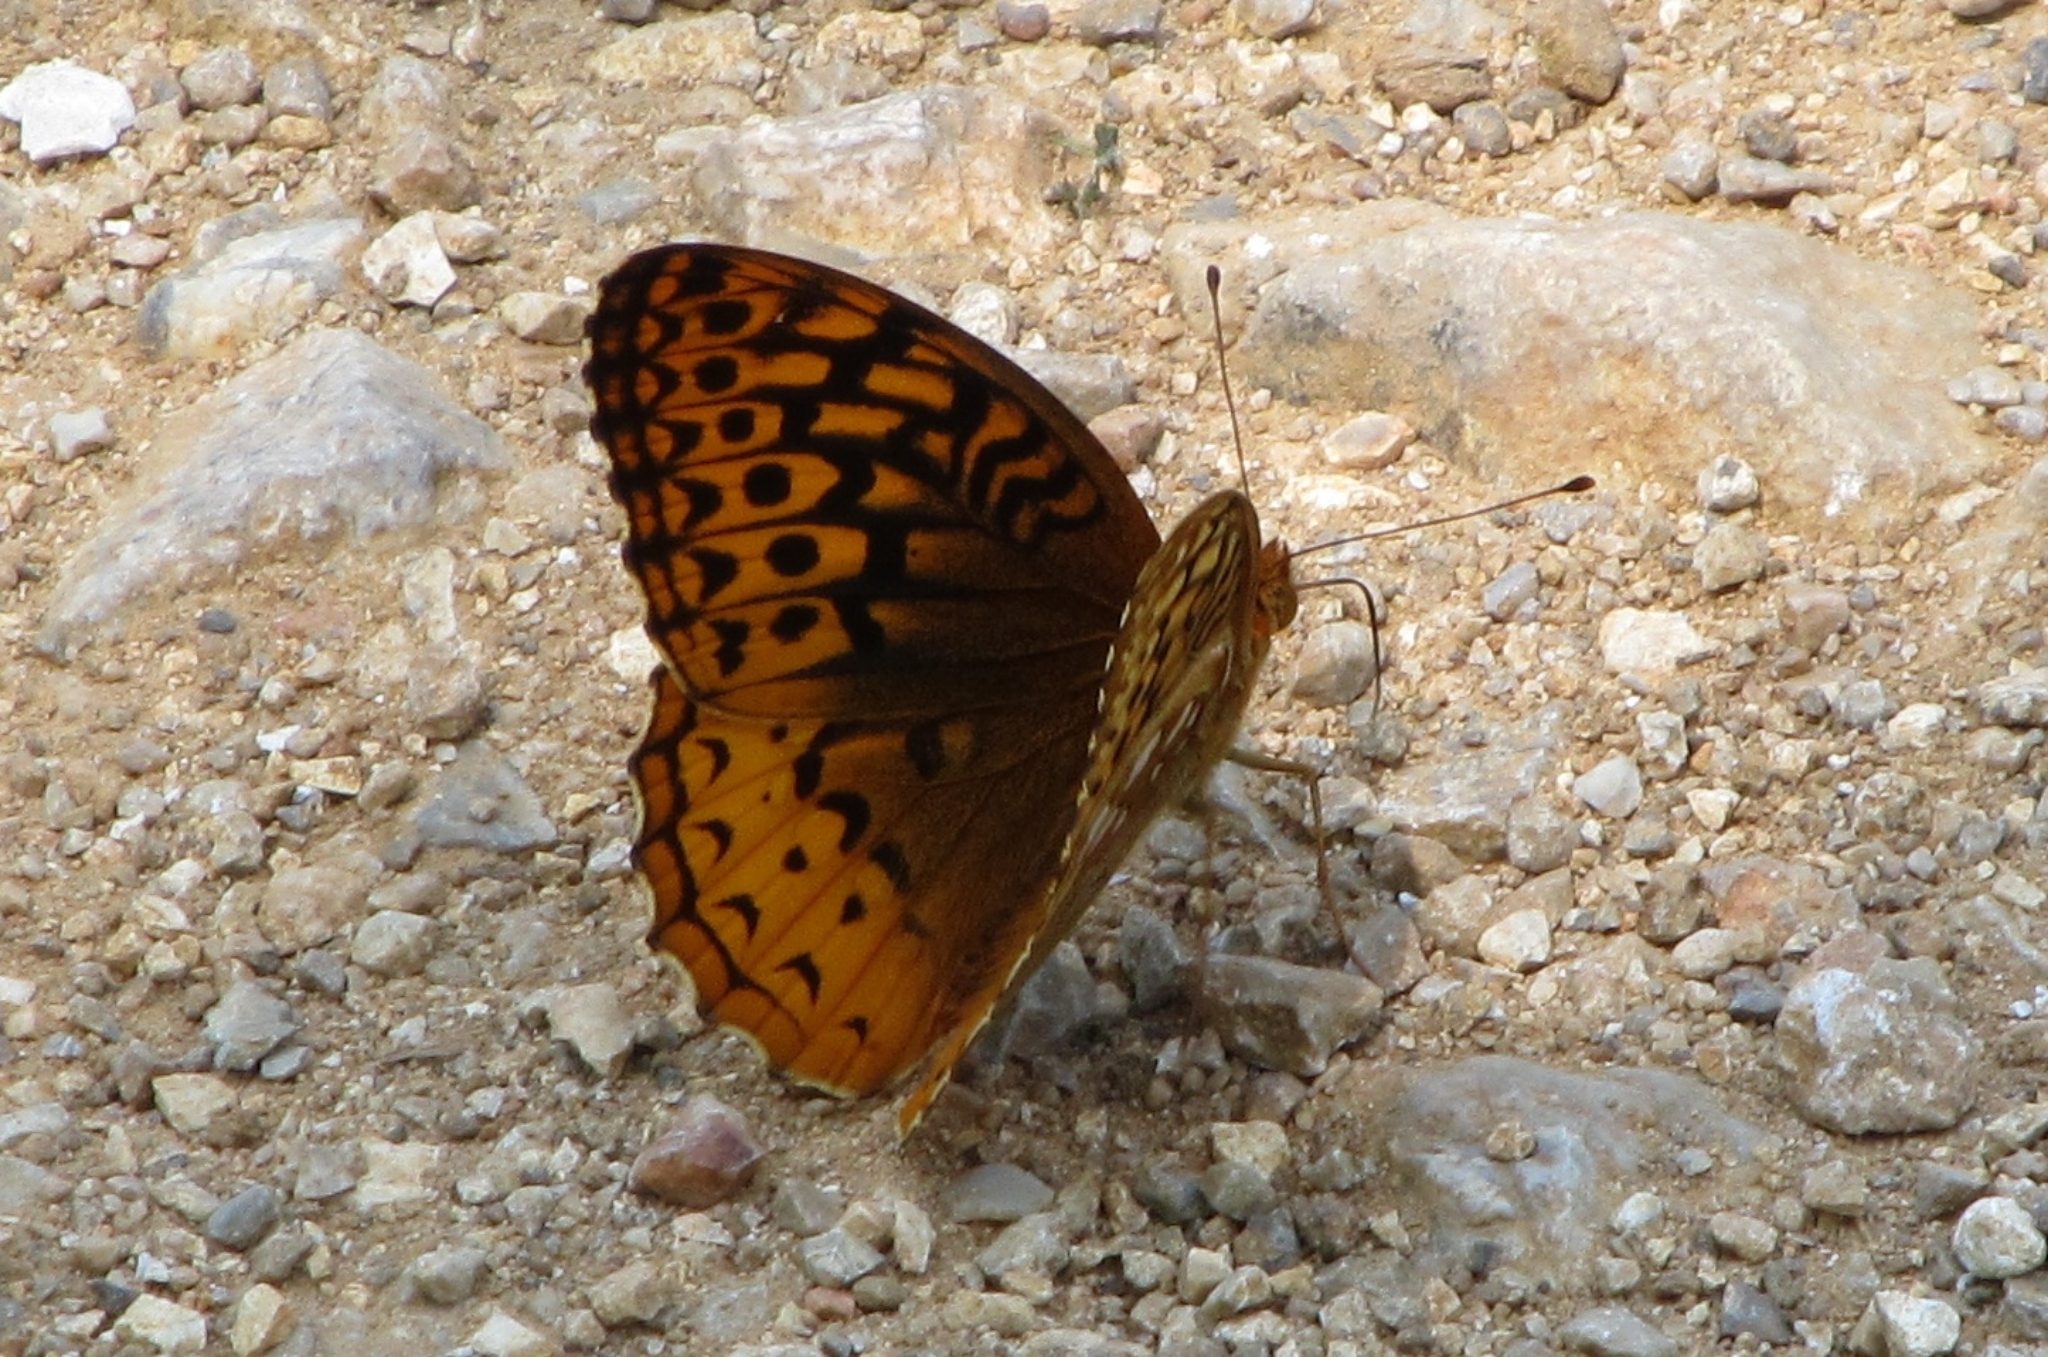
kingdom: Animalia
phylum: Arthropoda
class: Insecta
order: Lepidoptera
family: Nymphalidae
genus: Speyeria
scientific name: Speyeria cybele
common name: Great spangled fritillary
